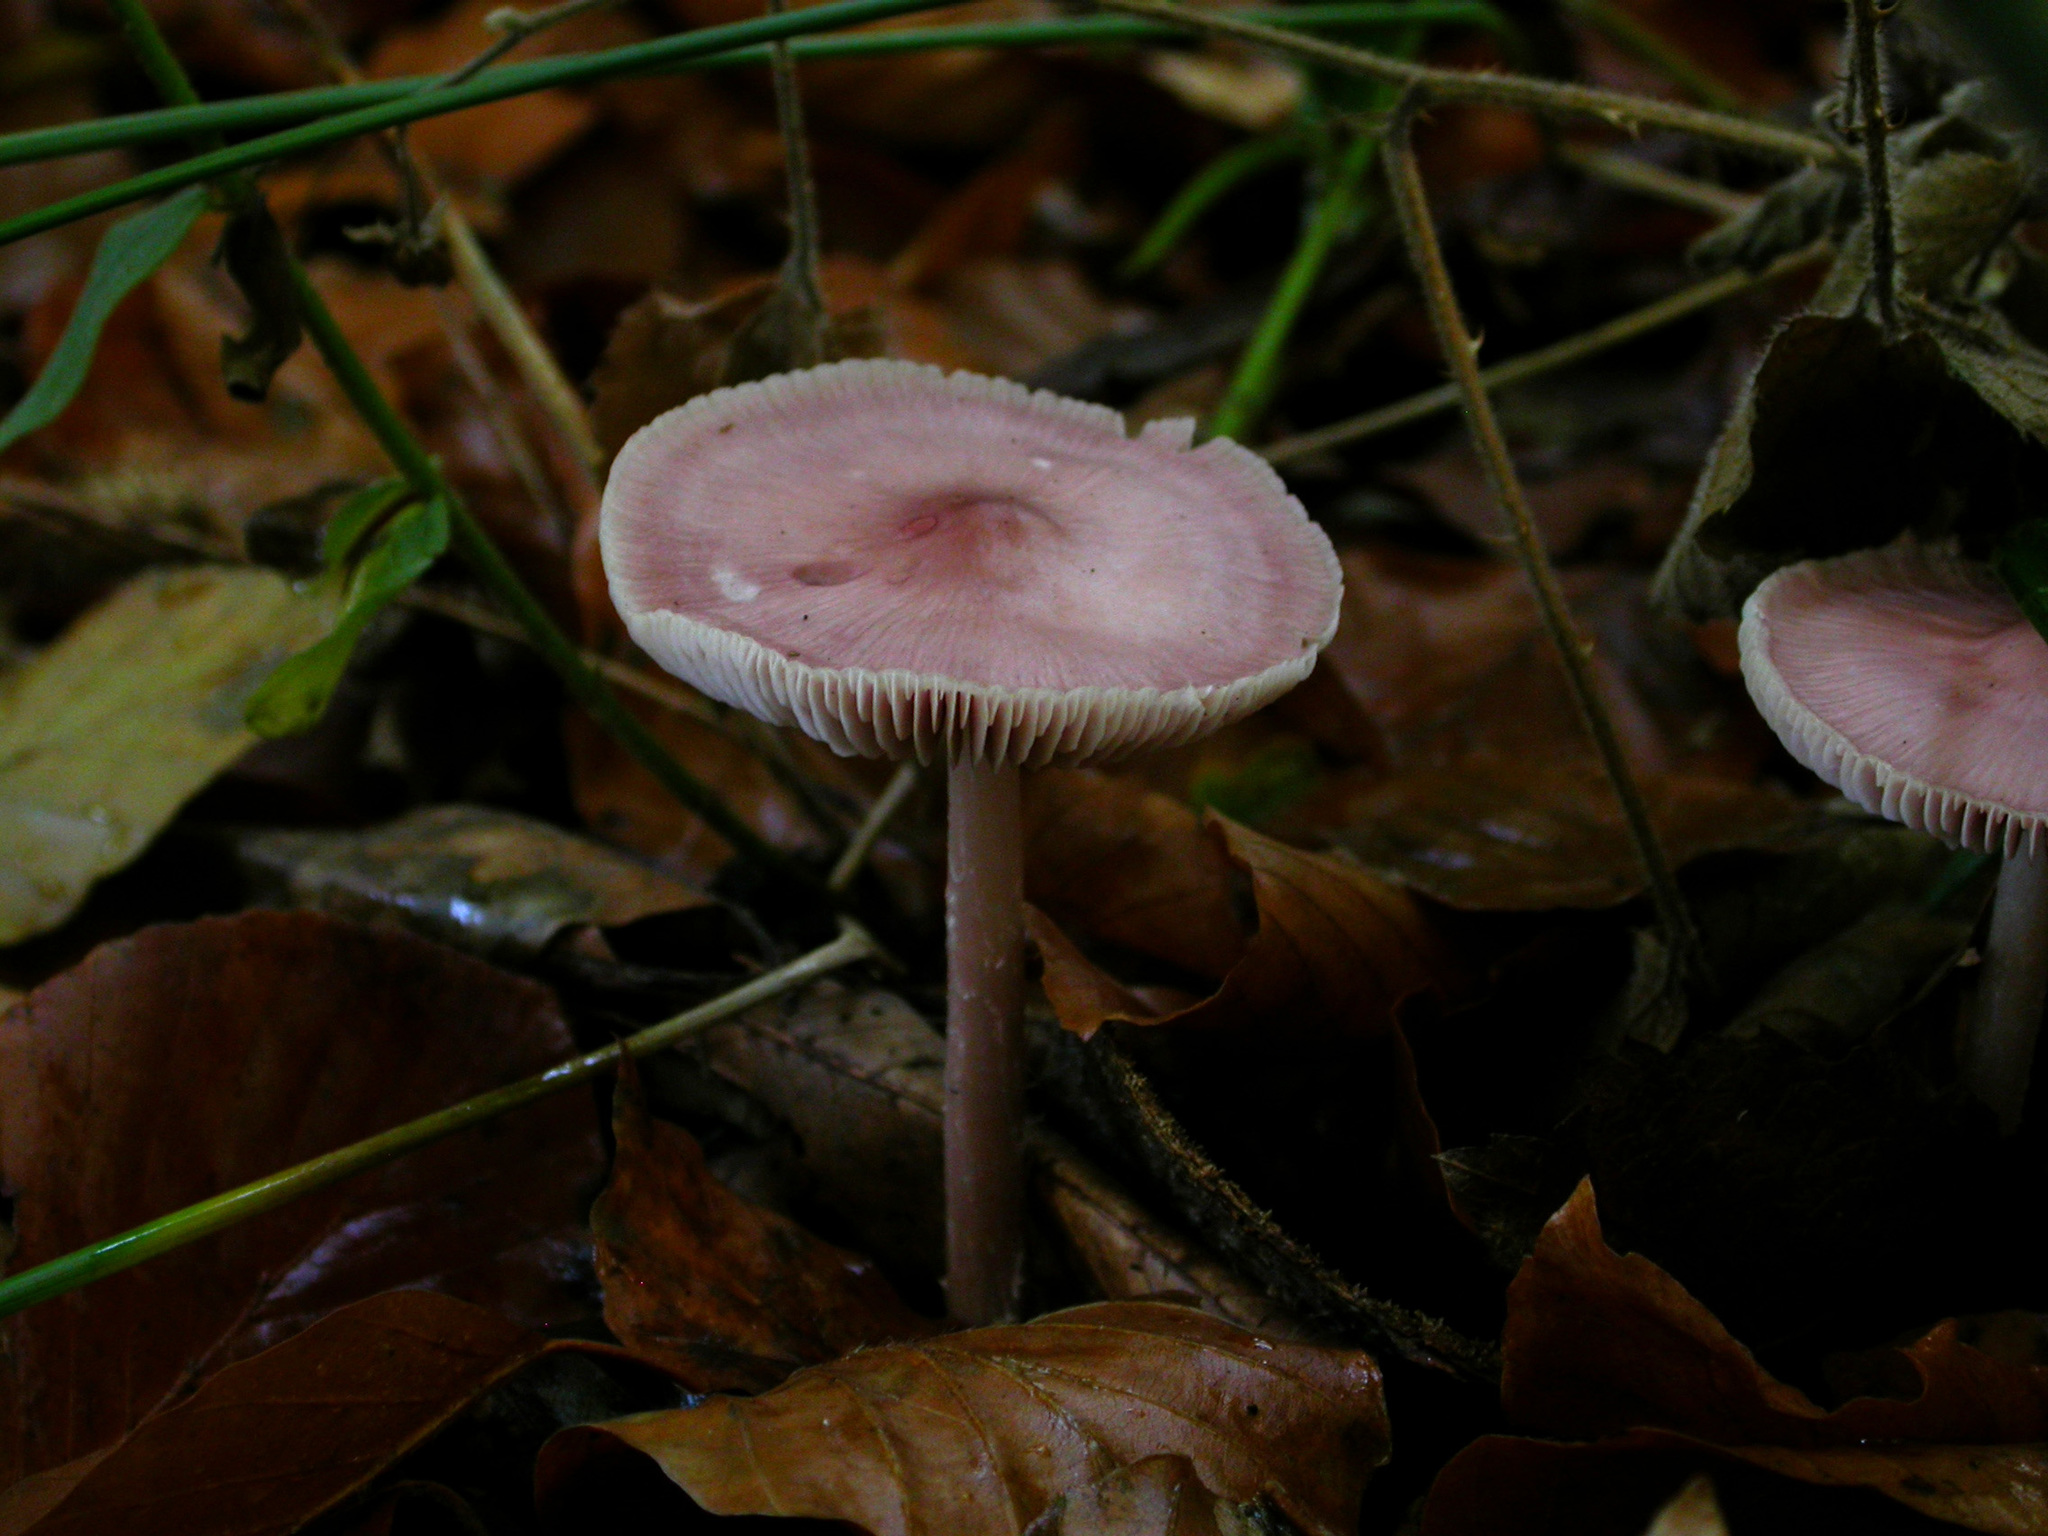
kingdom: Fungi
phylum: Basidiomycota
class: Agaricomycetes
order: Agaricales
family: Mycenaceae
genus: Mycena
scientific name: Mycena rosea
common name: Rosy bonnet
